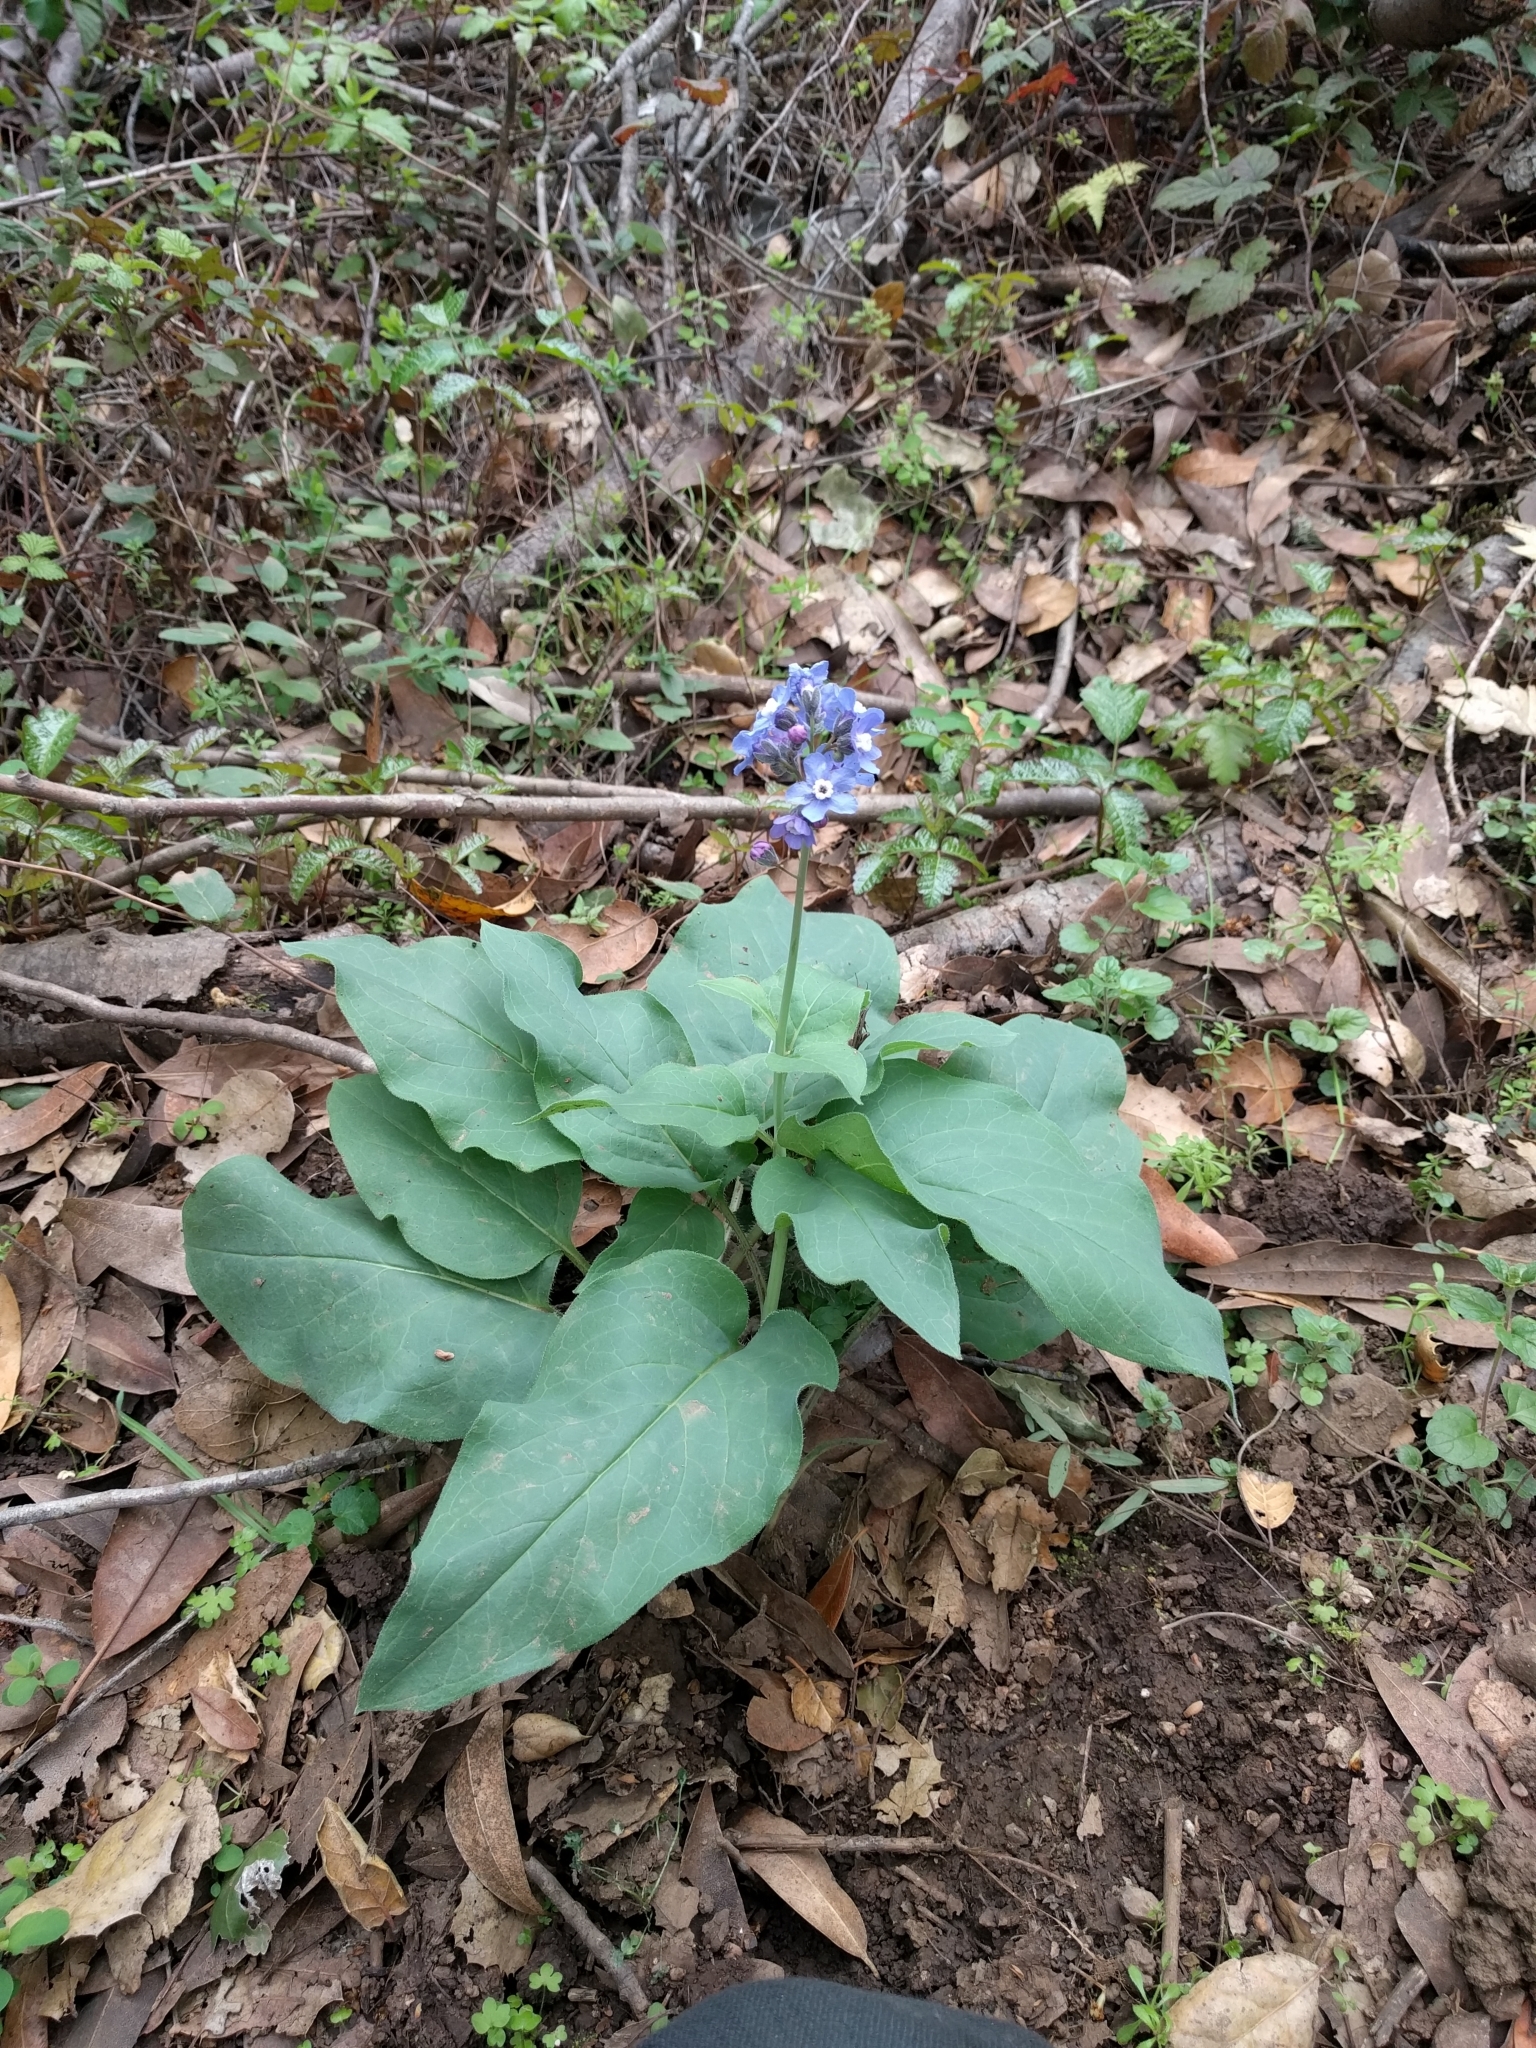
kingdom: Plantae
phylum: Tracheophyta
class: Magnoliopsida
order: Boraginales
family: Boraginaceae
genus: Adelinia
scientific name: Adelinia grande
